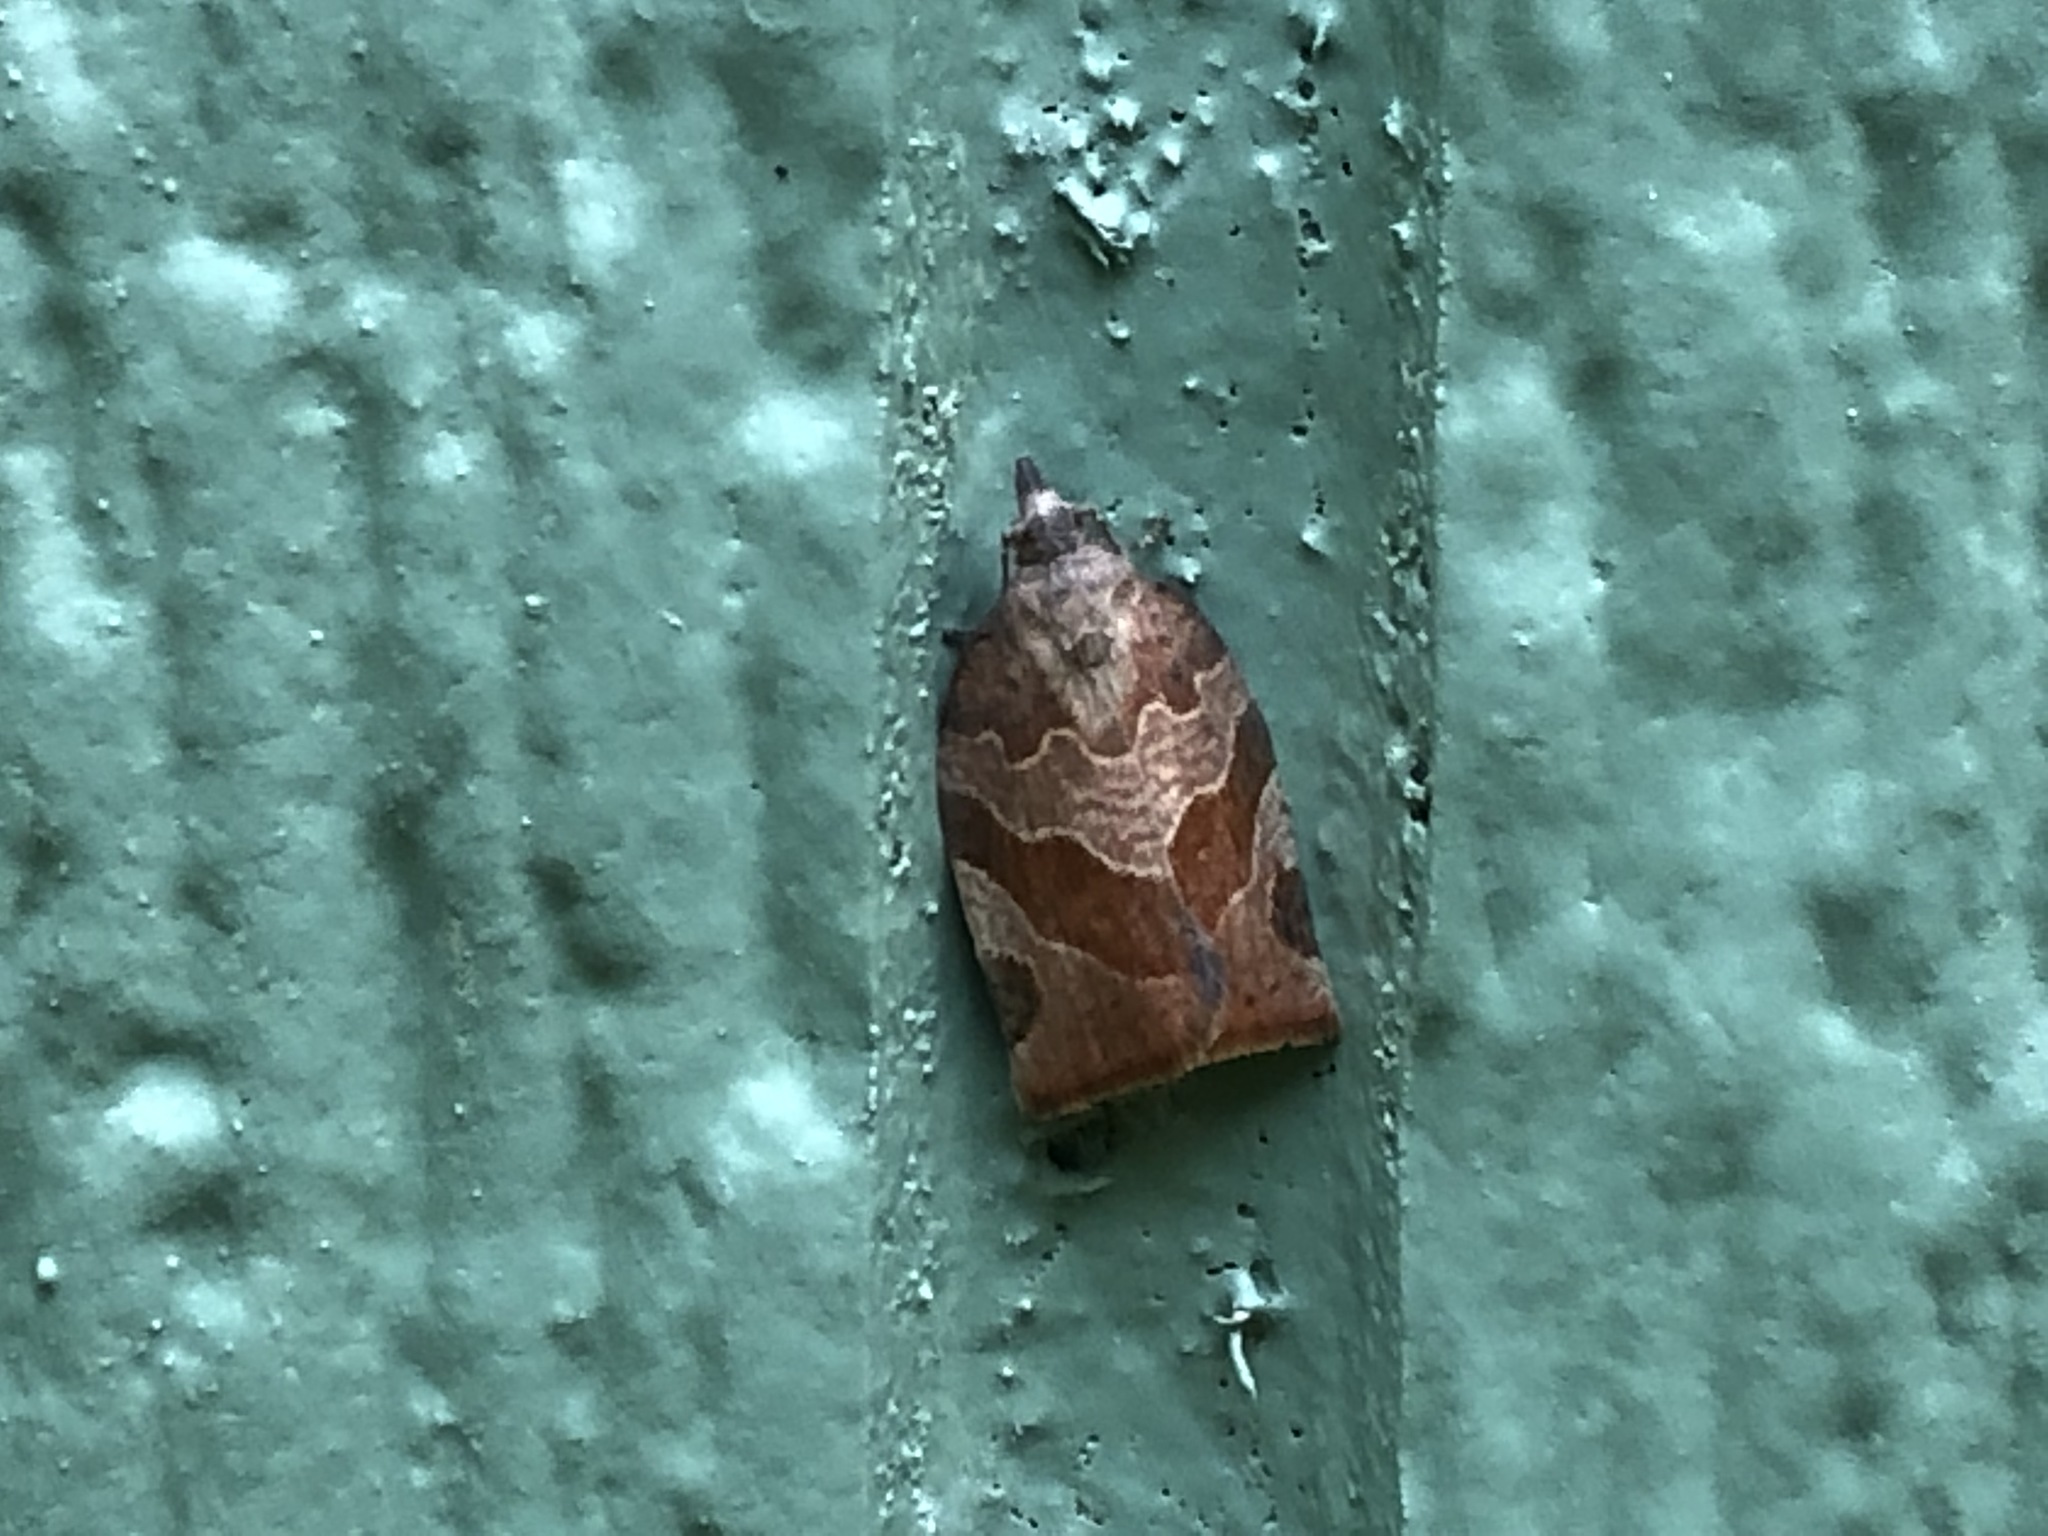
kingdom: Animalia
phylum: Arthropoda
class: Insecta
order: Lepidoptera
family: Tortricidae
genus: Pandemis
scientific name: Pandemis canadana
